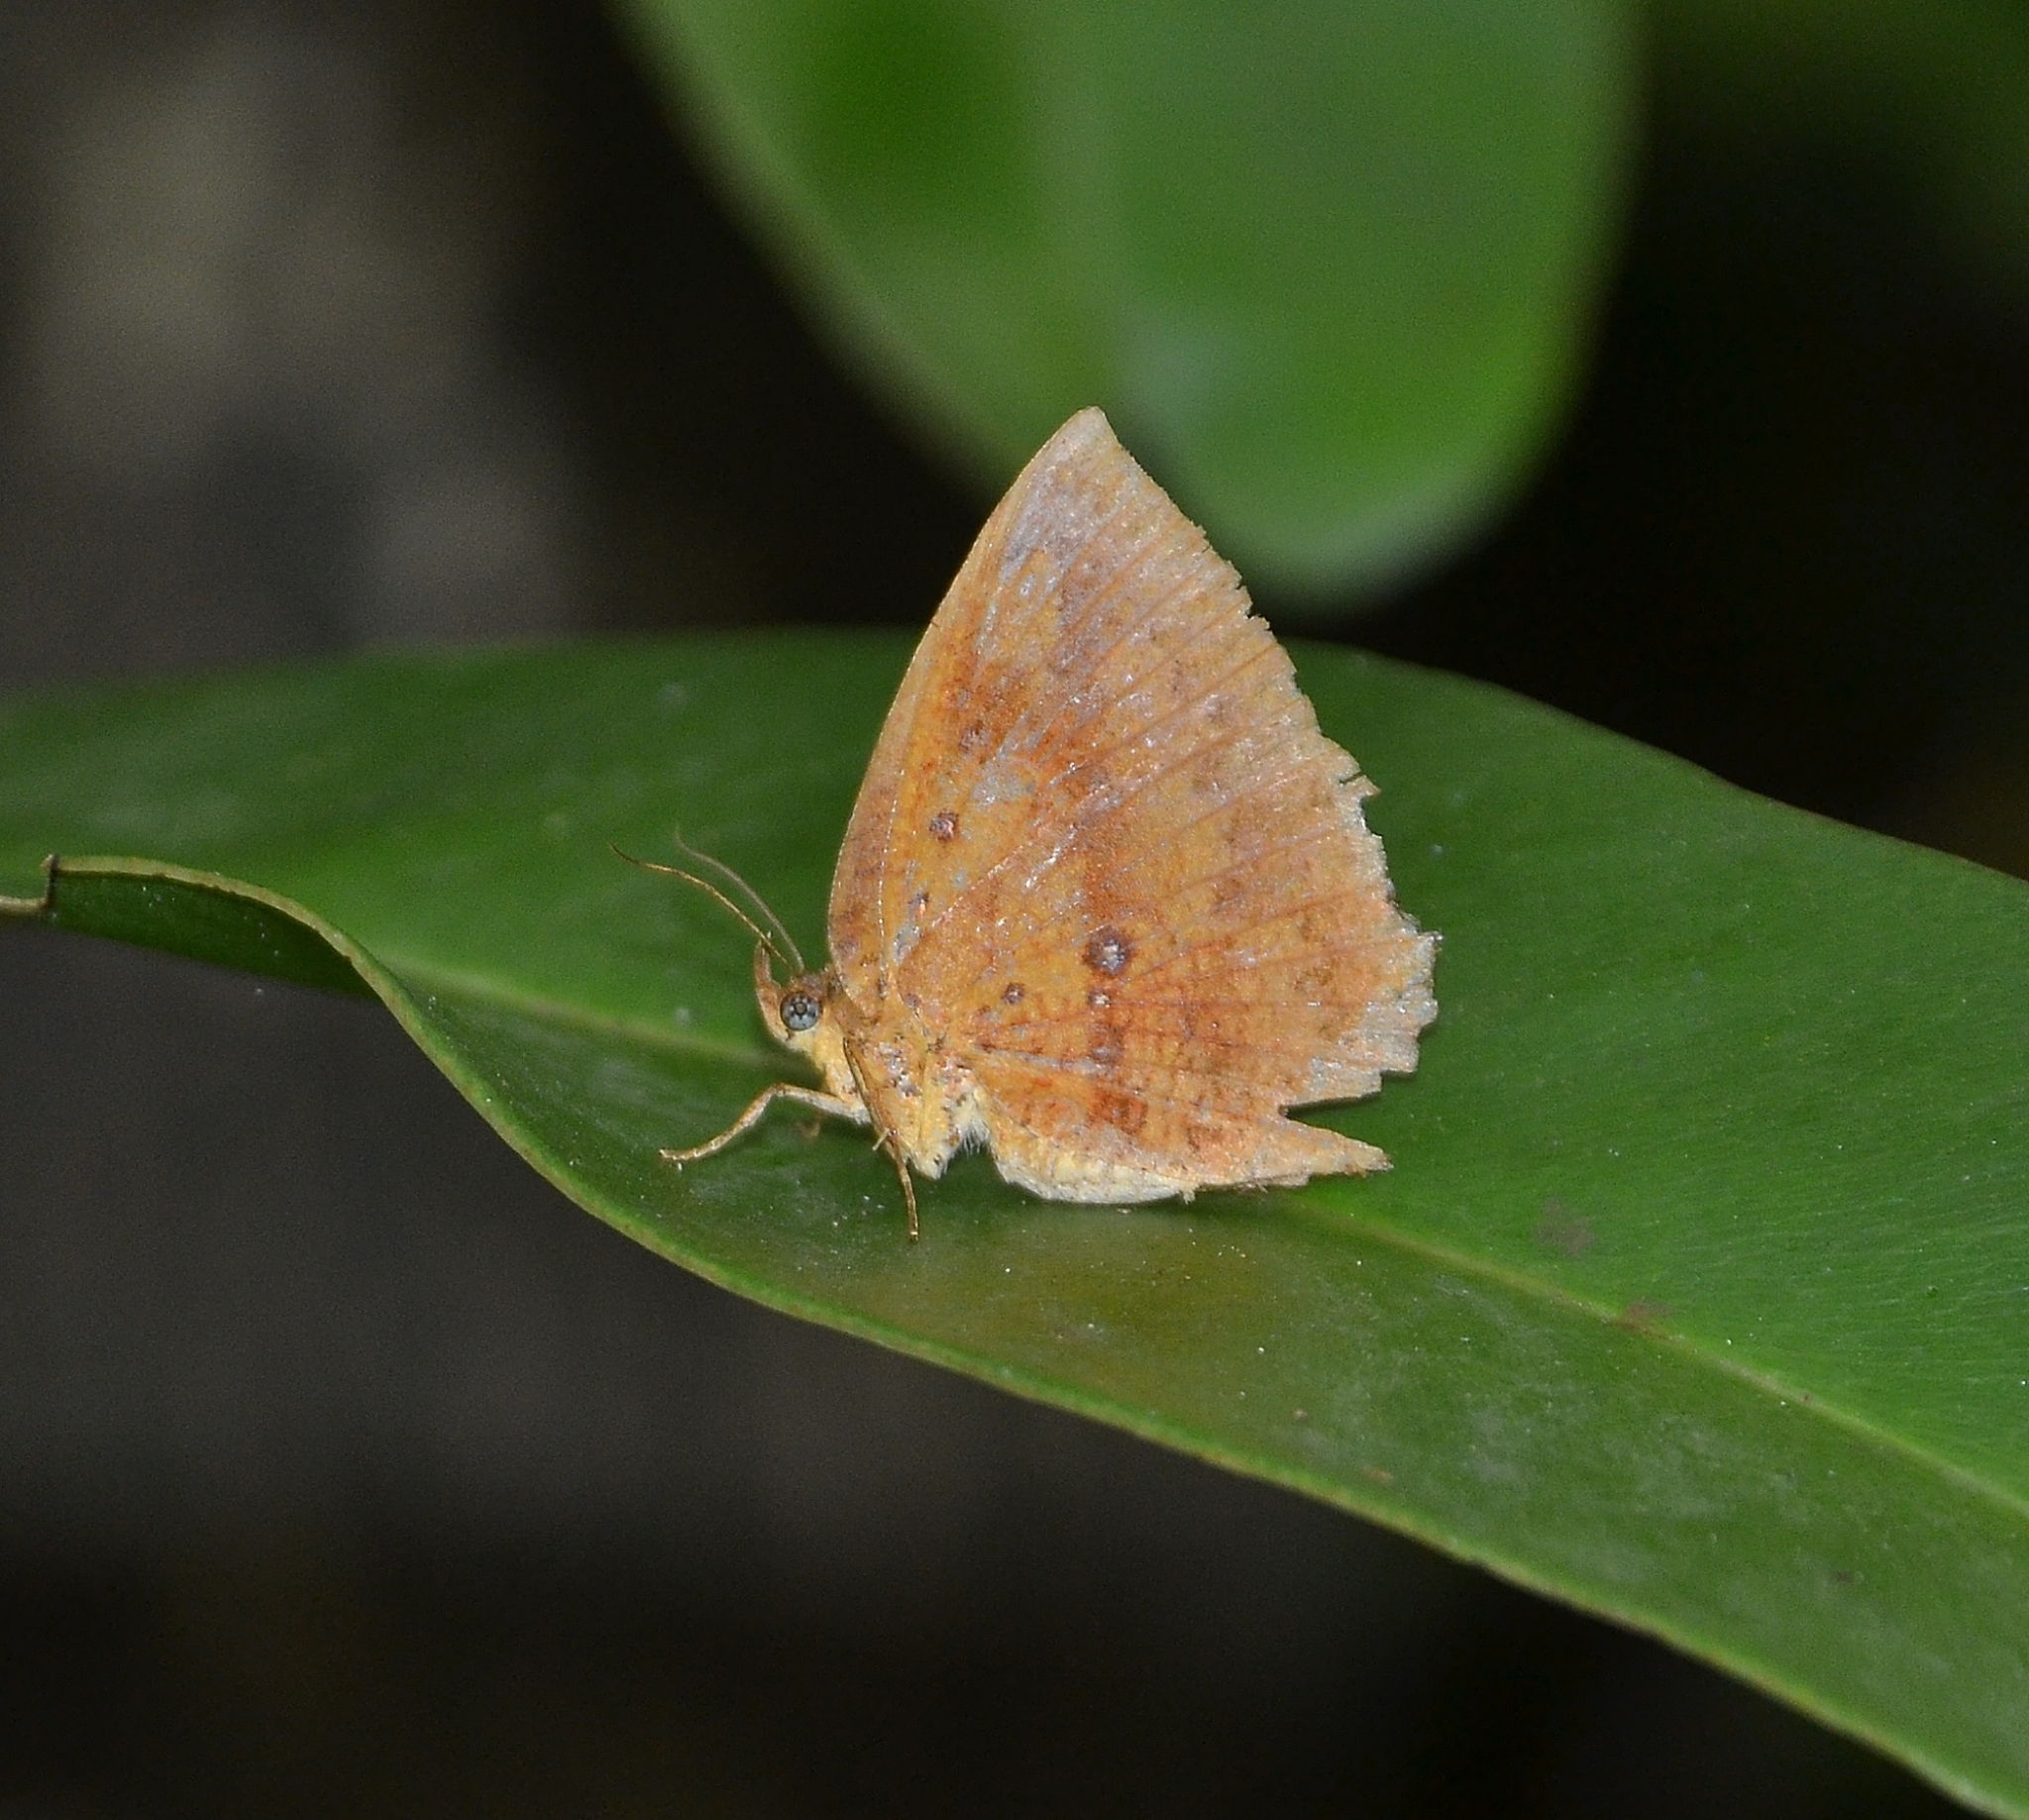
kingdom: Animalia
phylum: Arthropoda
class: Insecta
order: Lepidoptera
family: Callidulidae
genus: Tetragonus
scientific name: Tetragonus catamitus
